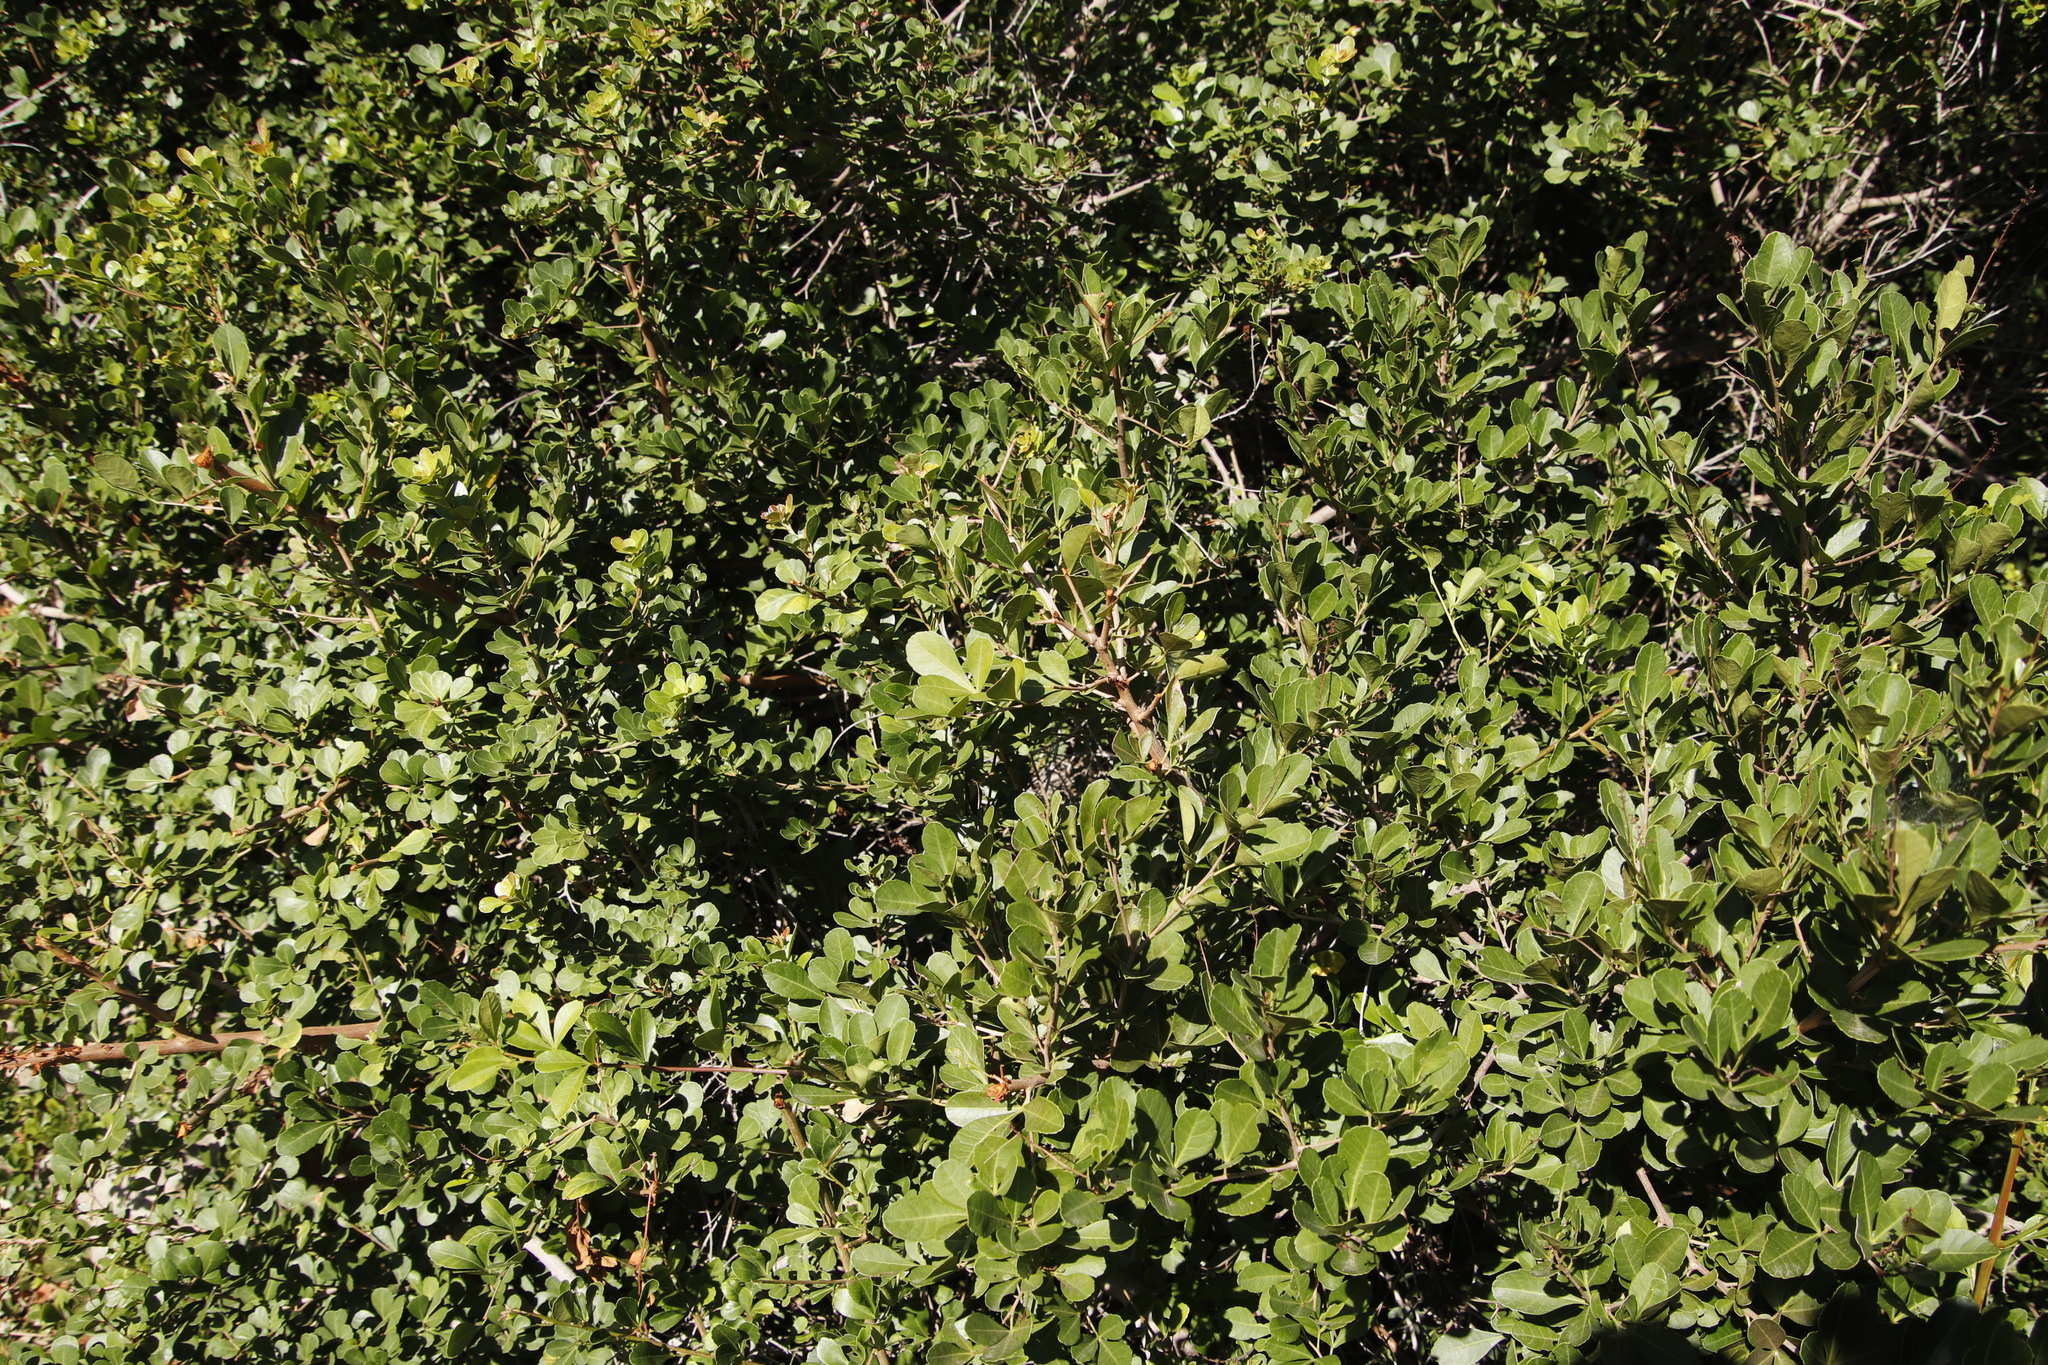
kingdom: Plantae
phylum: Tracheophyta
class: Magnoliopsida
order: Sapindales
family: Anacardiaceae
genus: Searsia
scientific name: Searsia crenata
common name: Crowberry
